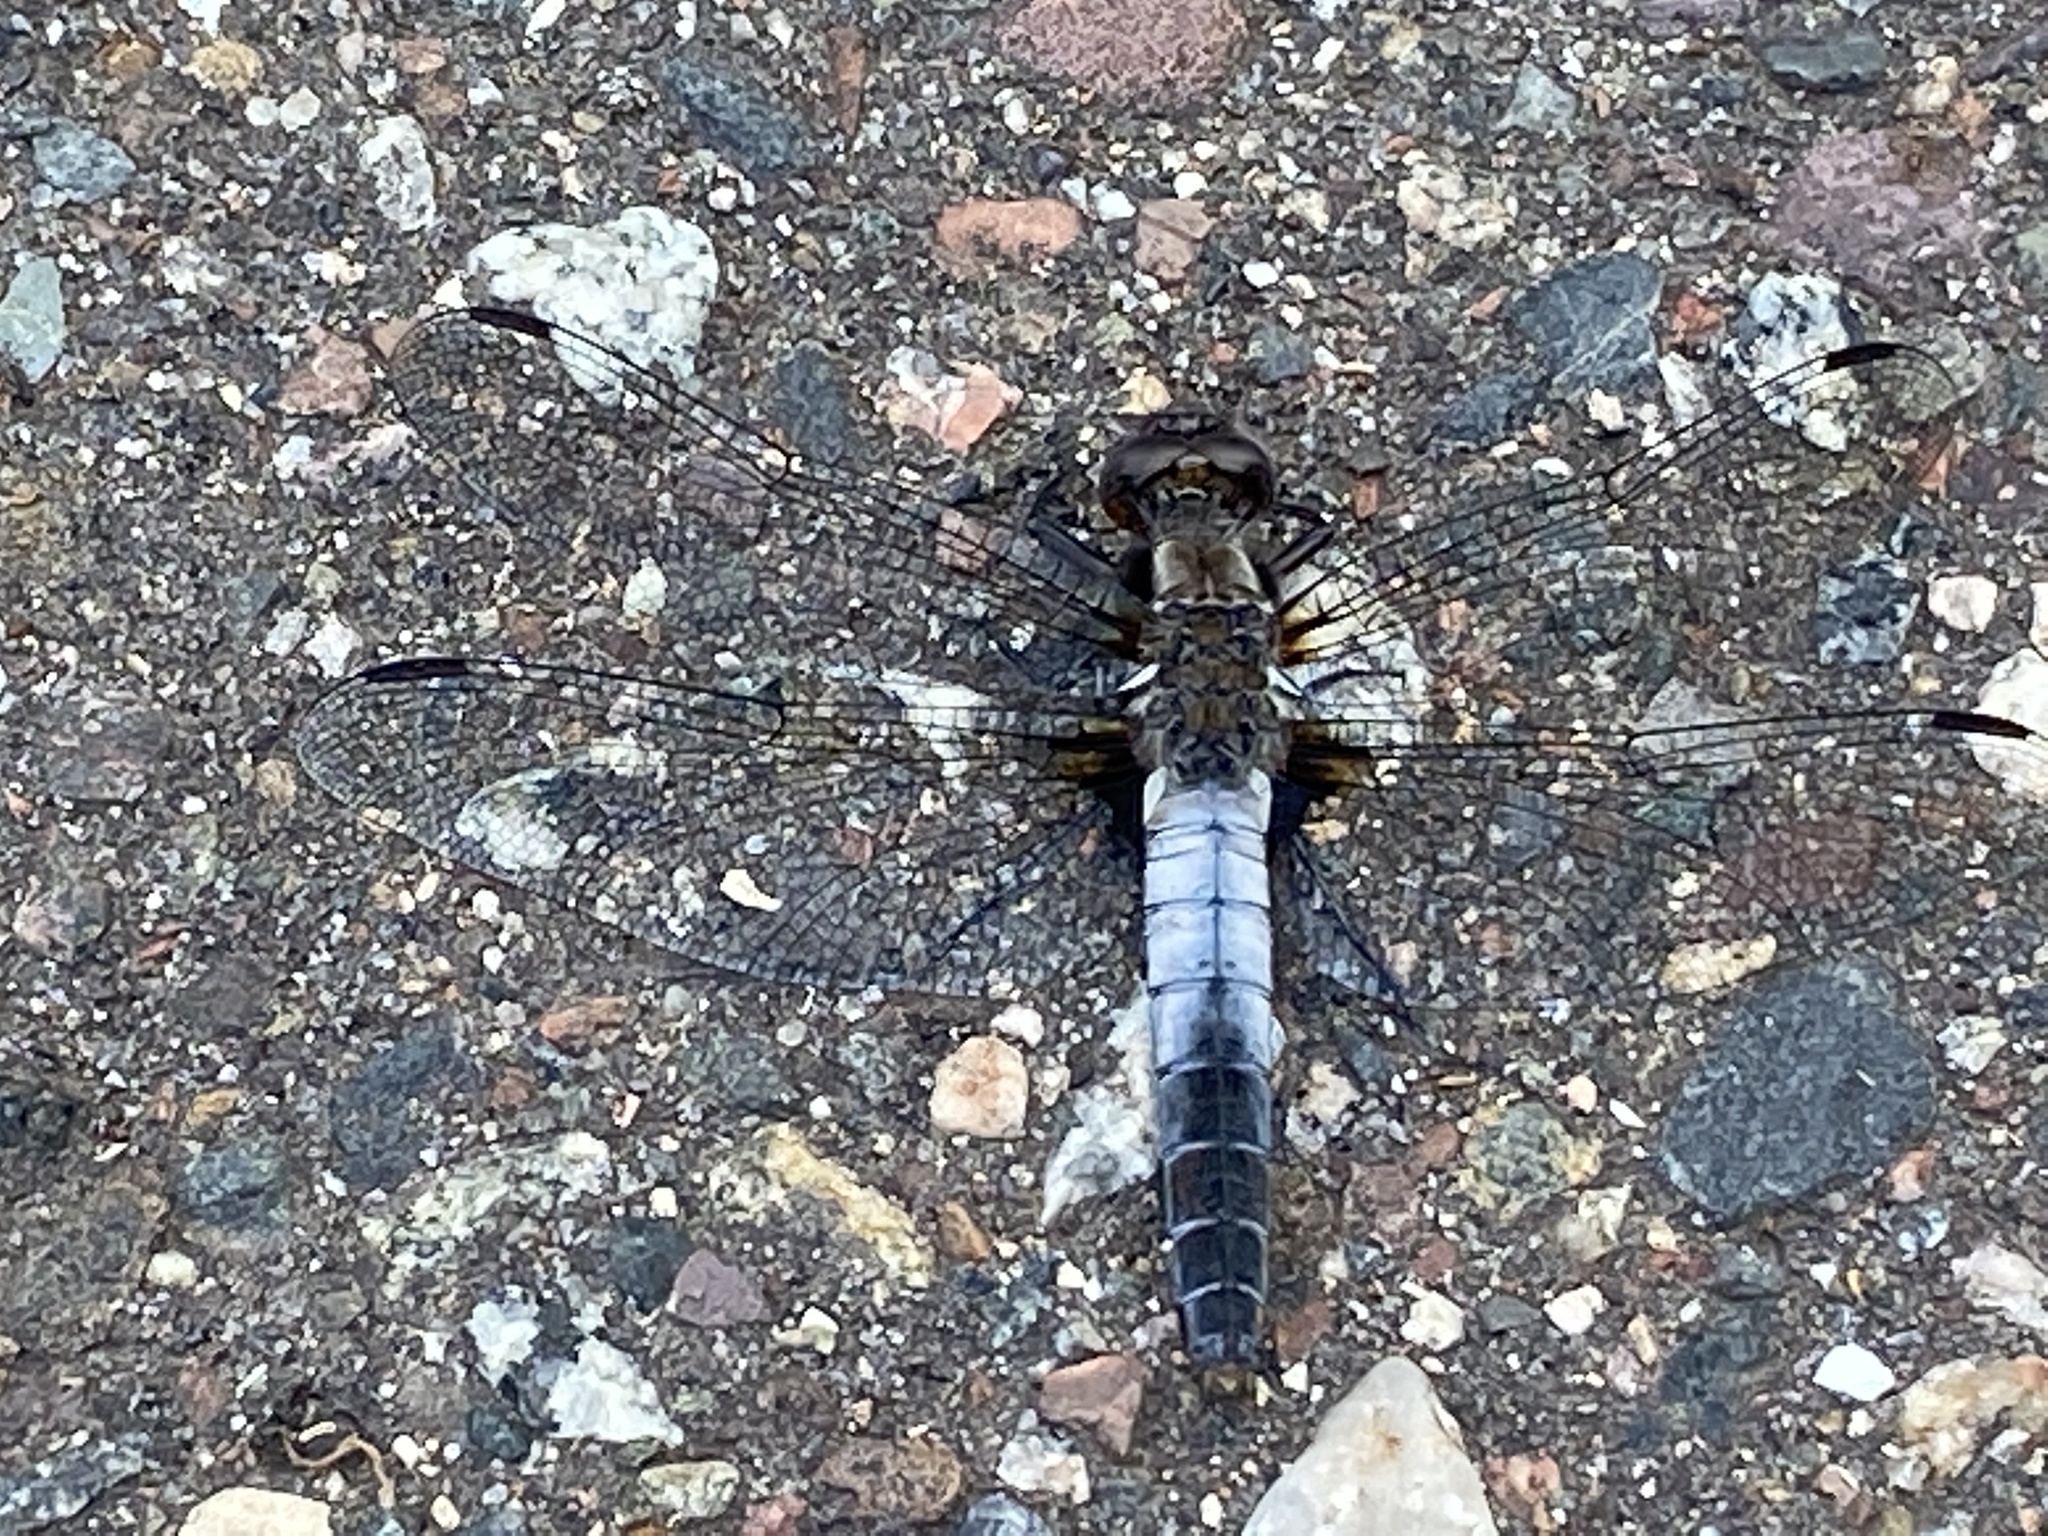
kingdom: Animalia
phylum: Arthropoda
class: Insecta
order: Odonata
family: Libellulidae
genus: Ladona
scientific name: Ladona julia
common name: Chalk-fronted corporal
